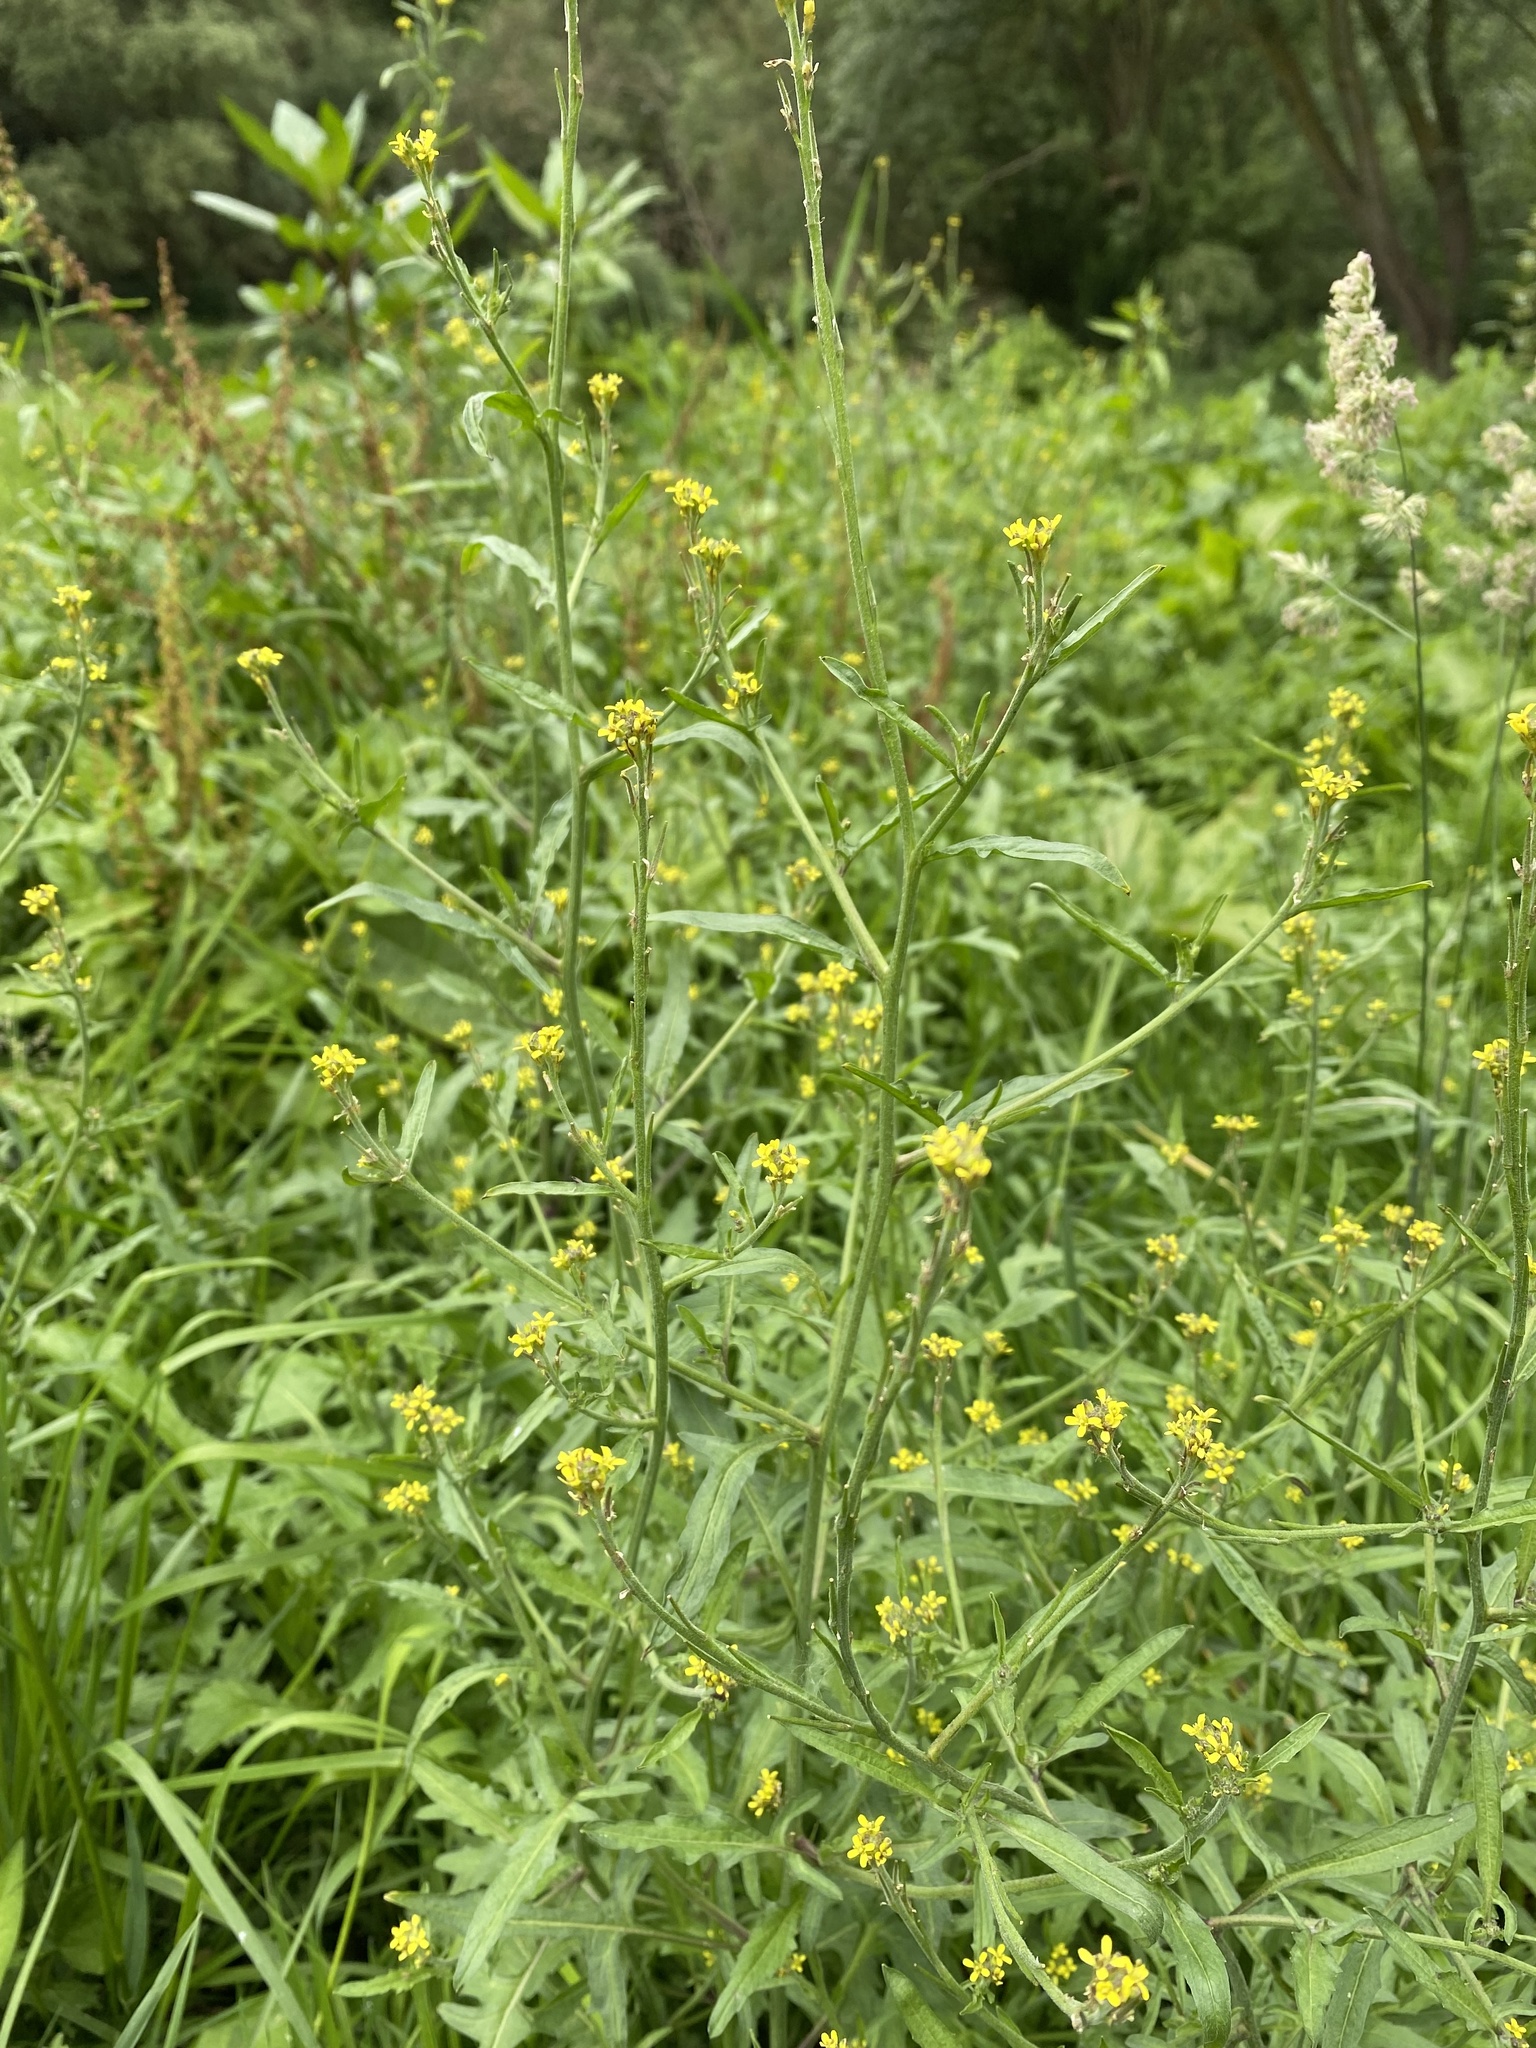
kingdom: Plantae
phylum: Tracheophyta
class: Magnoliopsida
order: Brassicales
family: Brassicaceae
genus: Sisymbrium
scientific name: Sisymbrium officinale
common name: Hedge mustard
